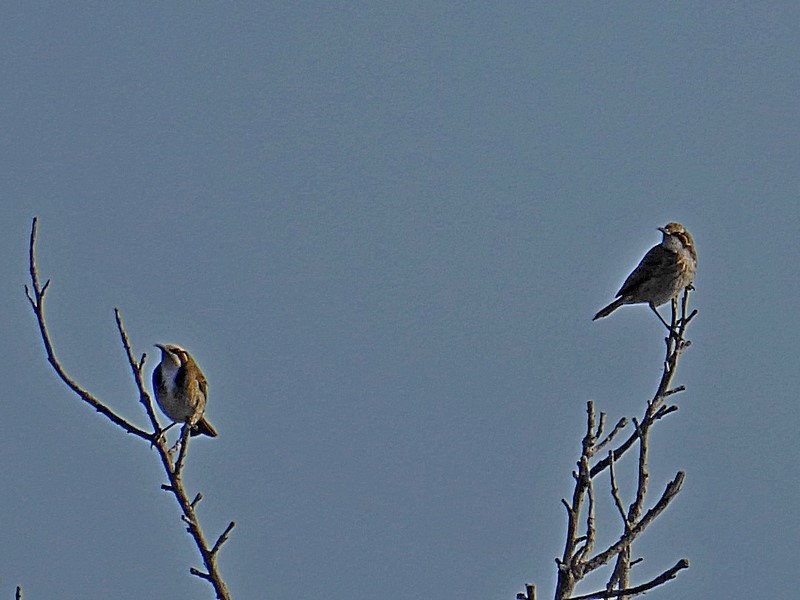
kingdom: Animalia
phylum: Chordata
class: Aves
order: Passeriformes
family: Meliphagidae
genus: Gliciphila
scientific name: Gliciphila melanops
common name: Tawny-crowned honeyeater
